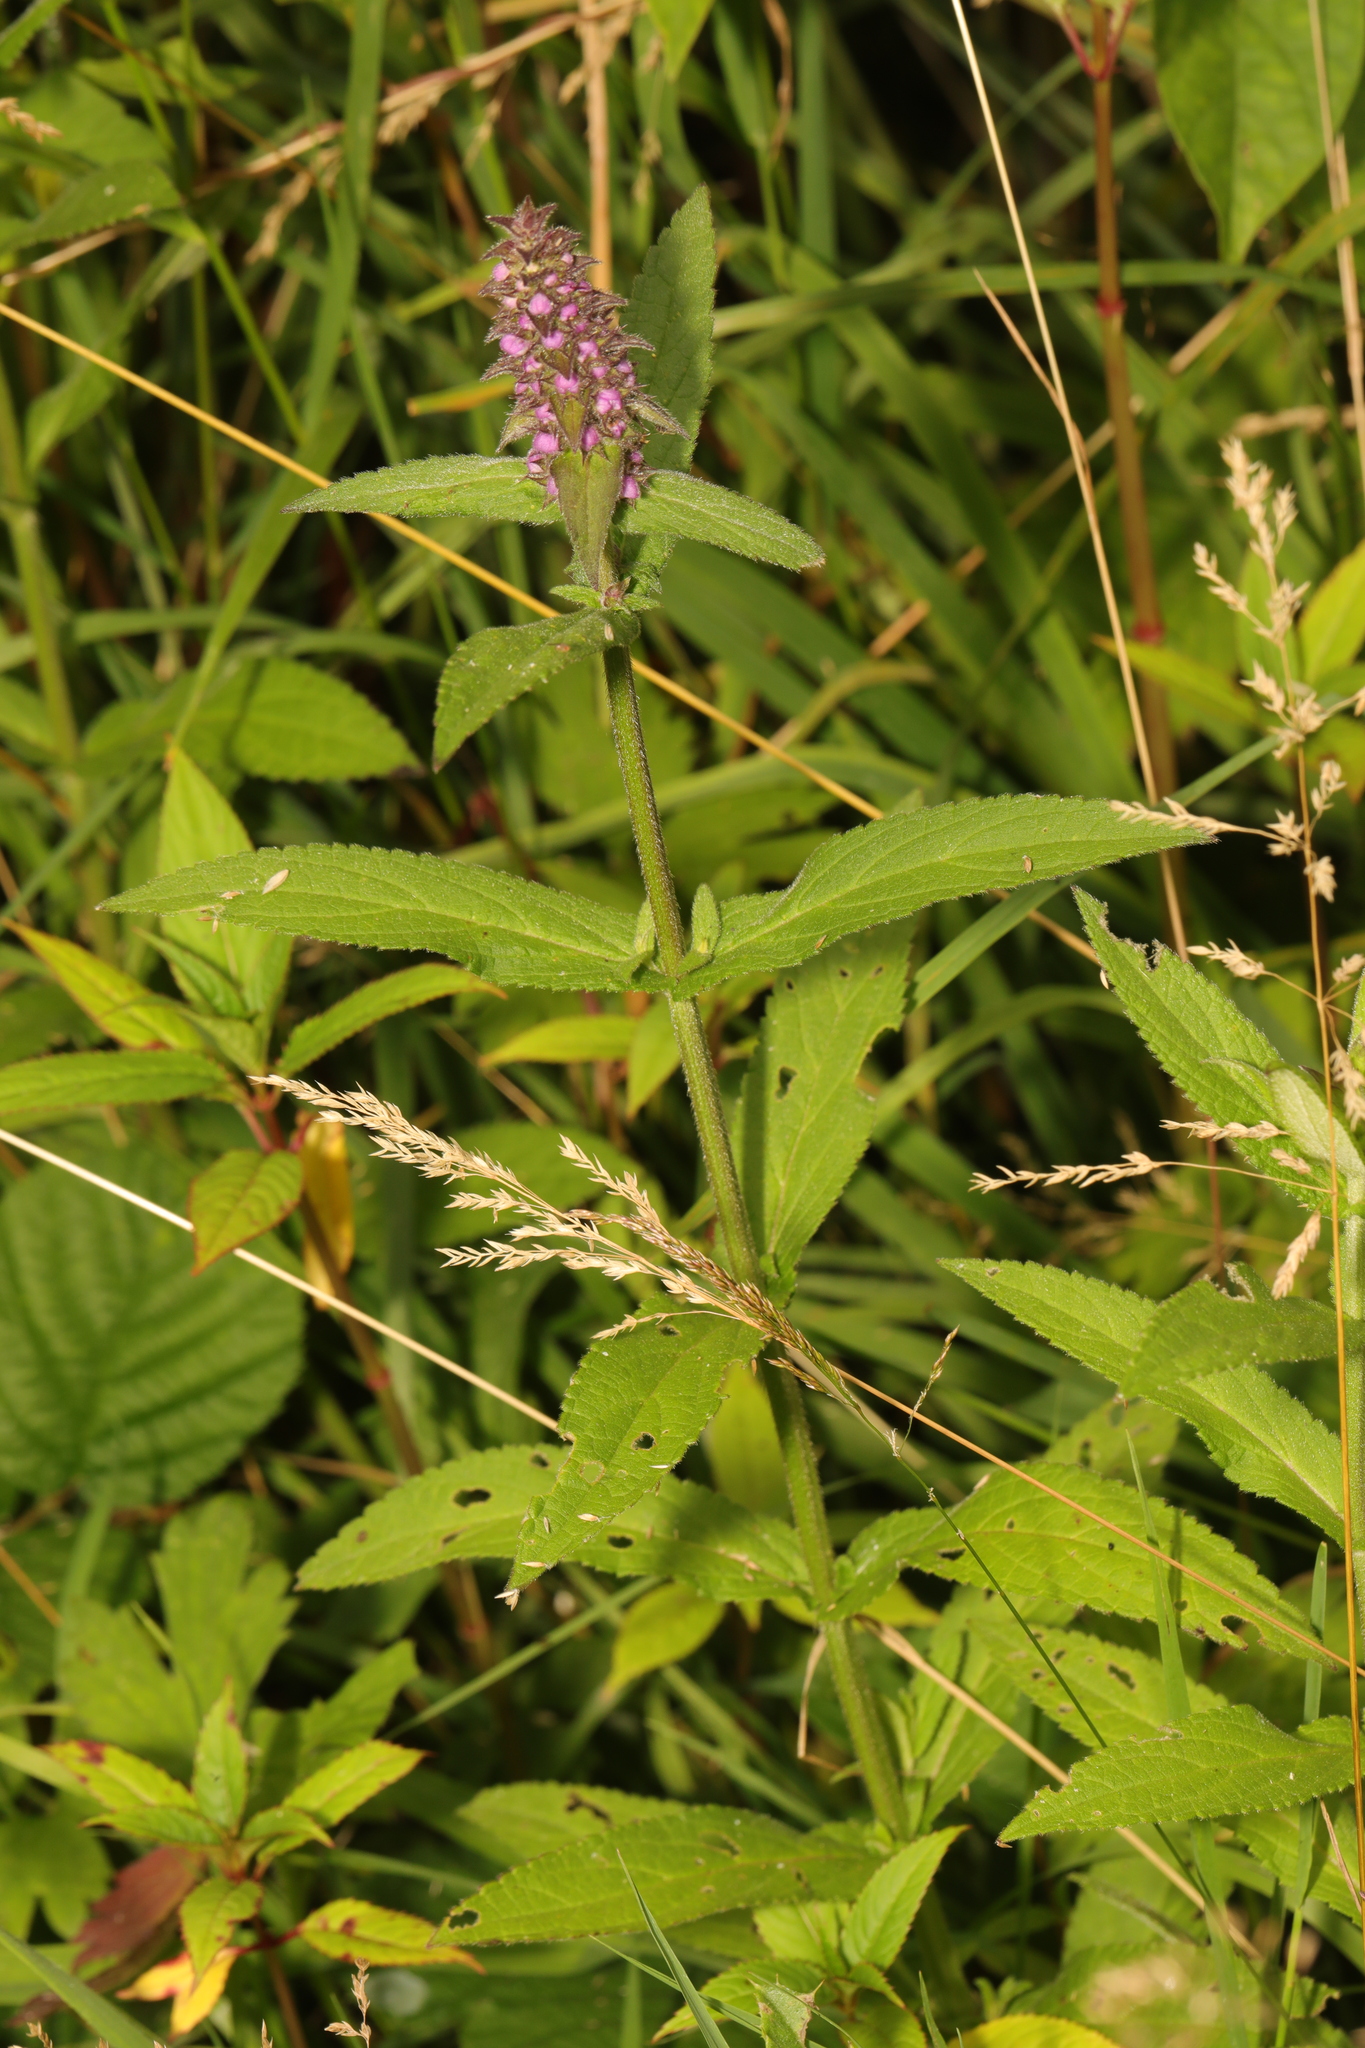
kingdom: Plantae
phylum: Tracheophyta
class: Magnoliopsida
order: Lamiales
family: Lamiaceae
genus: Stachys
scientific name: Stachys palustris
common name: Marsh woundwort
